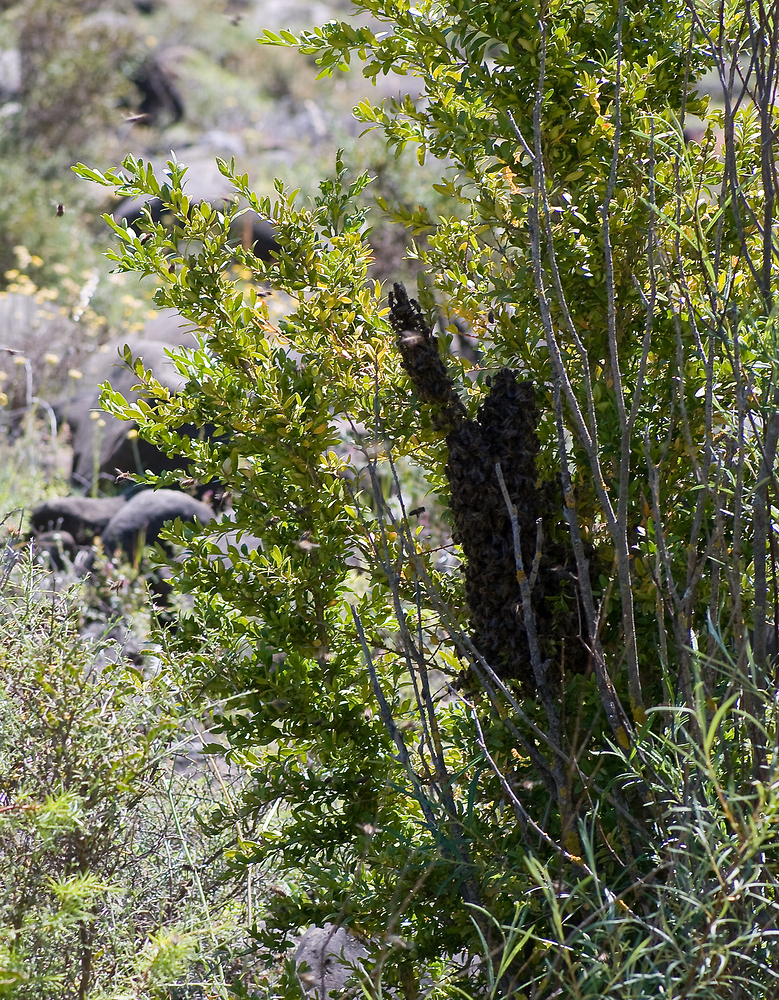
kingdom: Animalia
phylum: Arthropoda
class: Insecta
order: Hymenoptera
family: Apidae
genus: Apis
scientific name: Apis mellifera
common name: Honey bee
